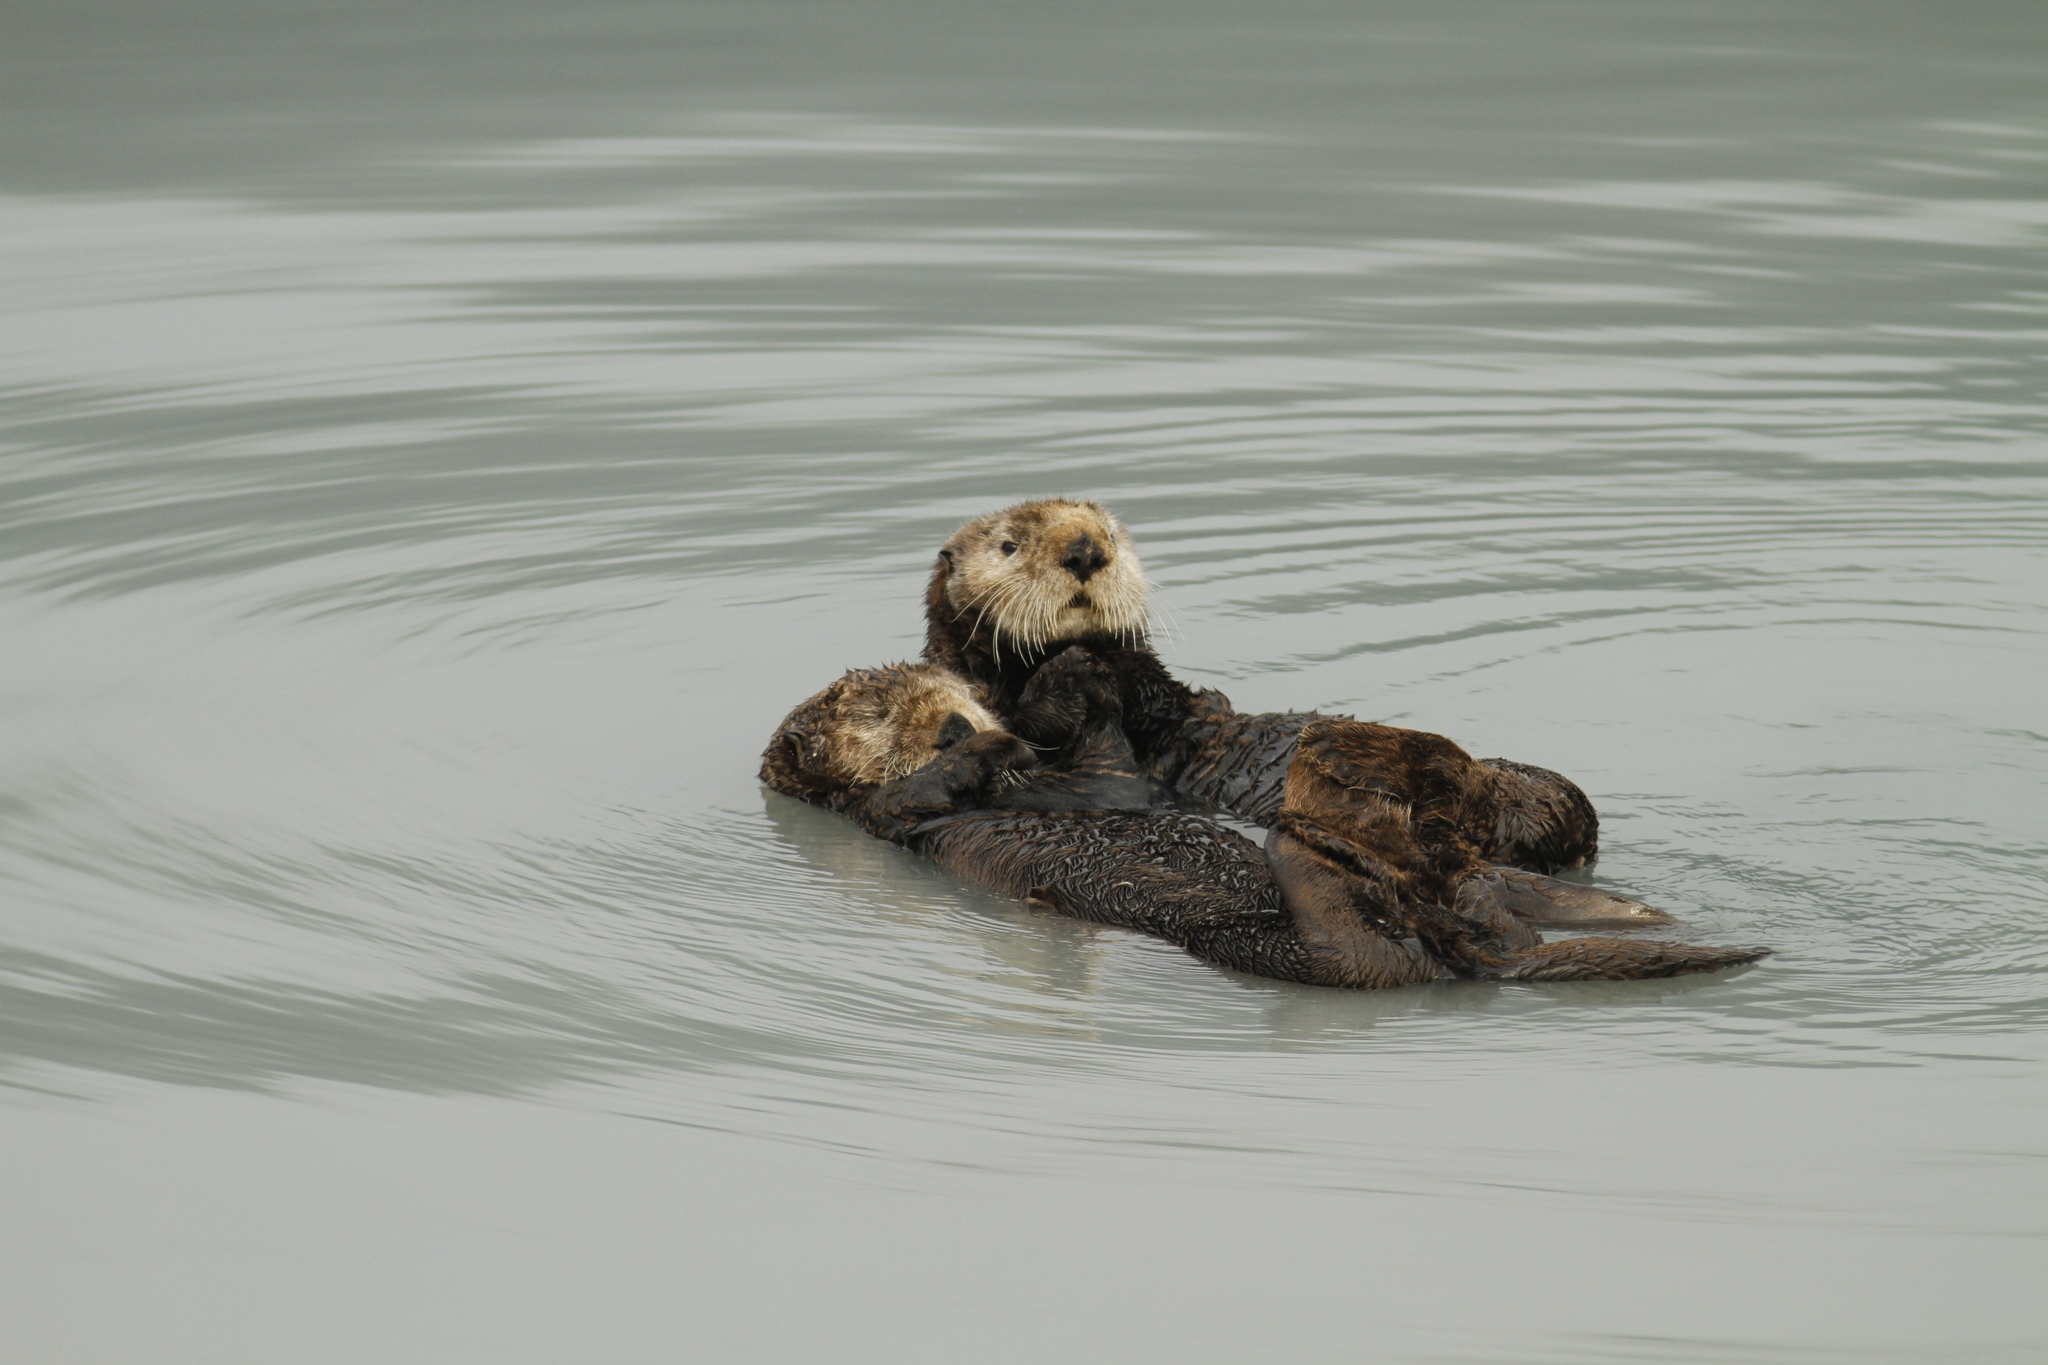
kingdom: Animalia
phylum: Chordata
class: Mammalia
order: Carnivora
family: Mustelidae
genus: Enhydra
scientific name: Enhydra lutris
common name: Sea otter
